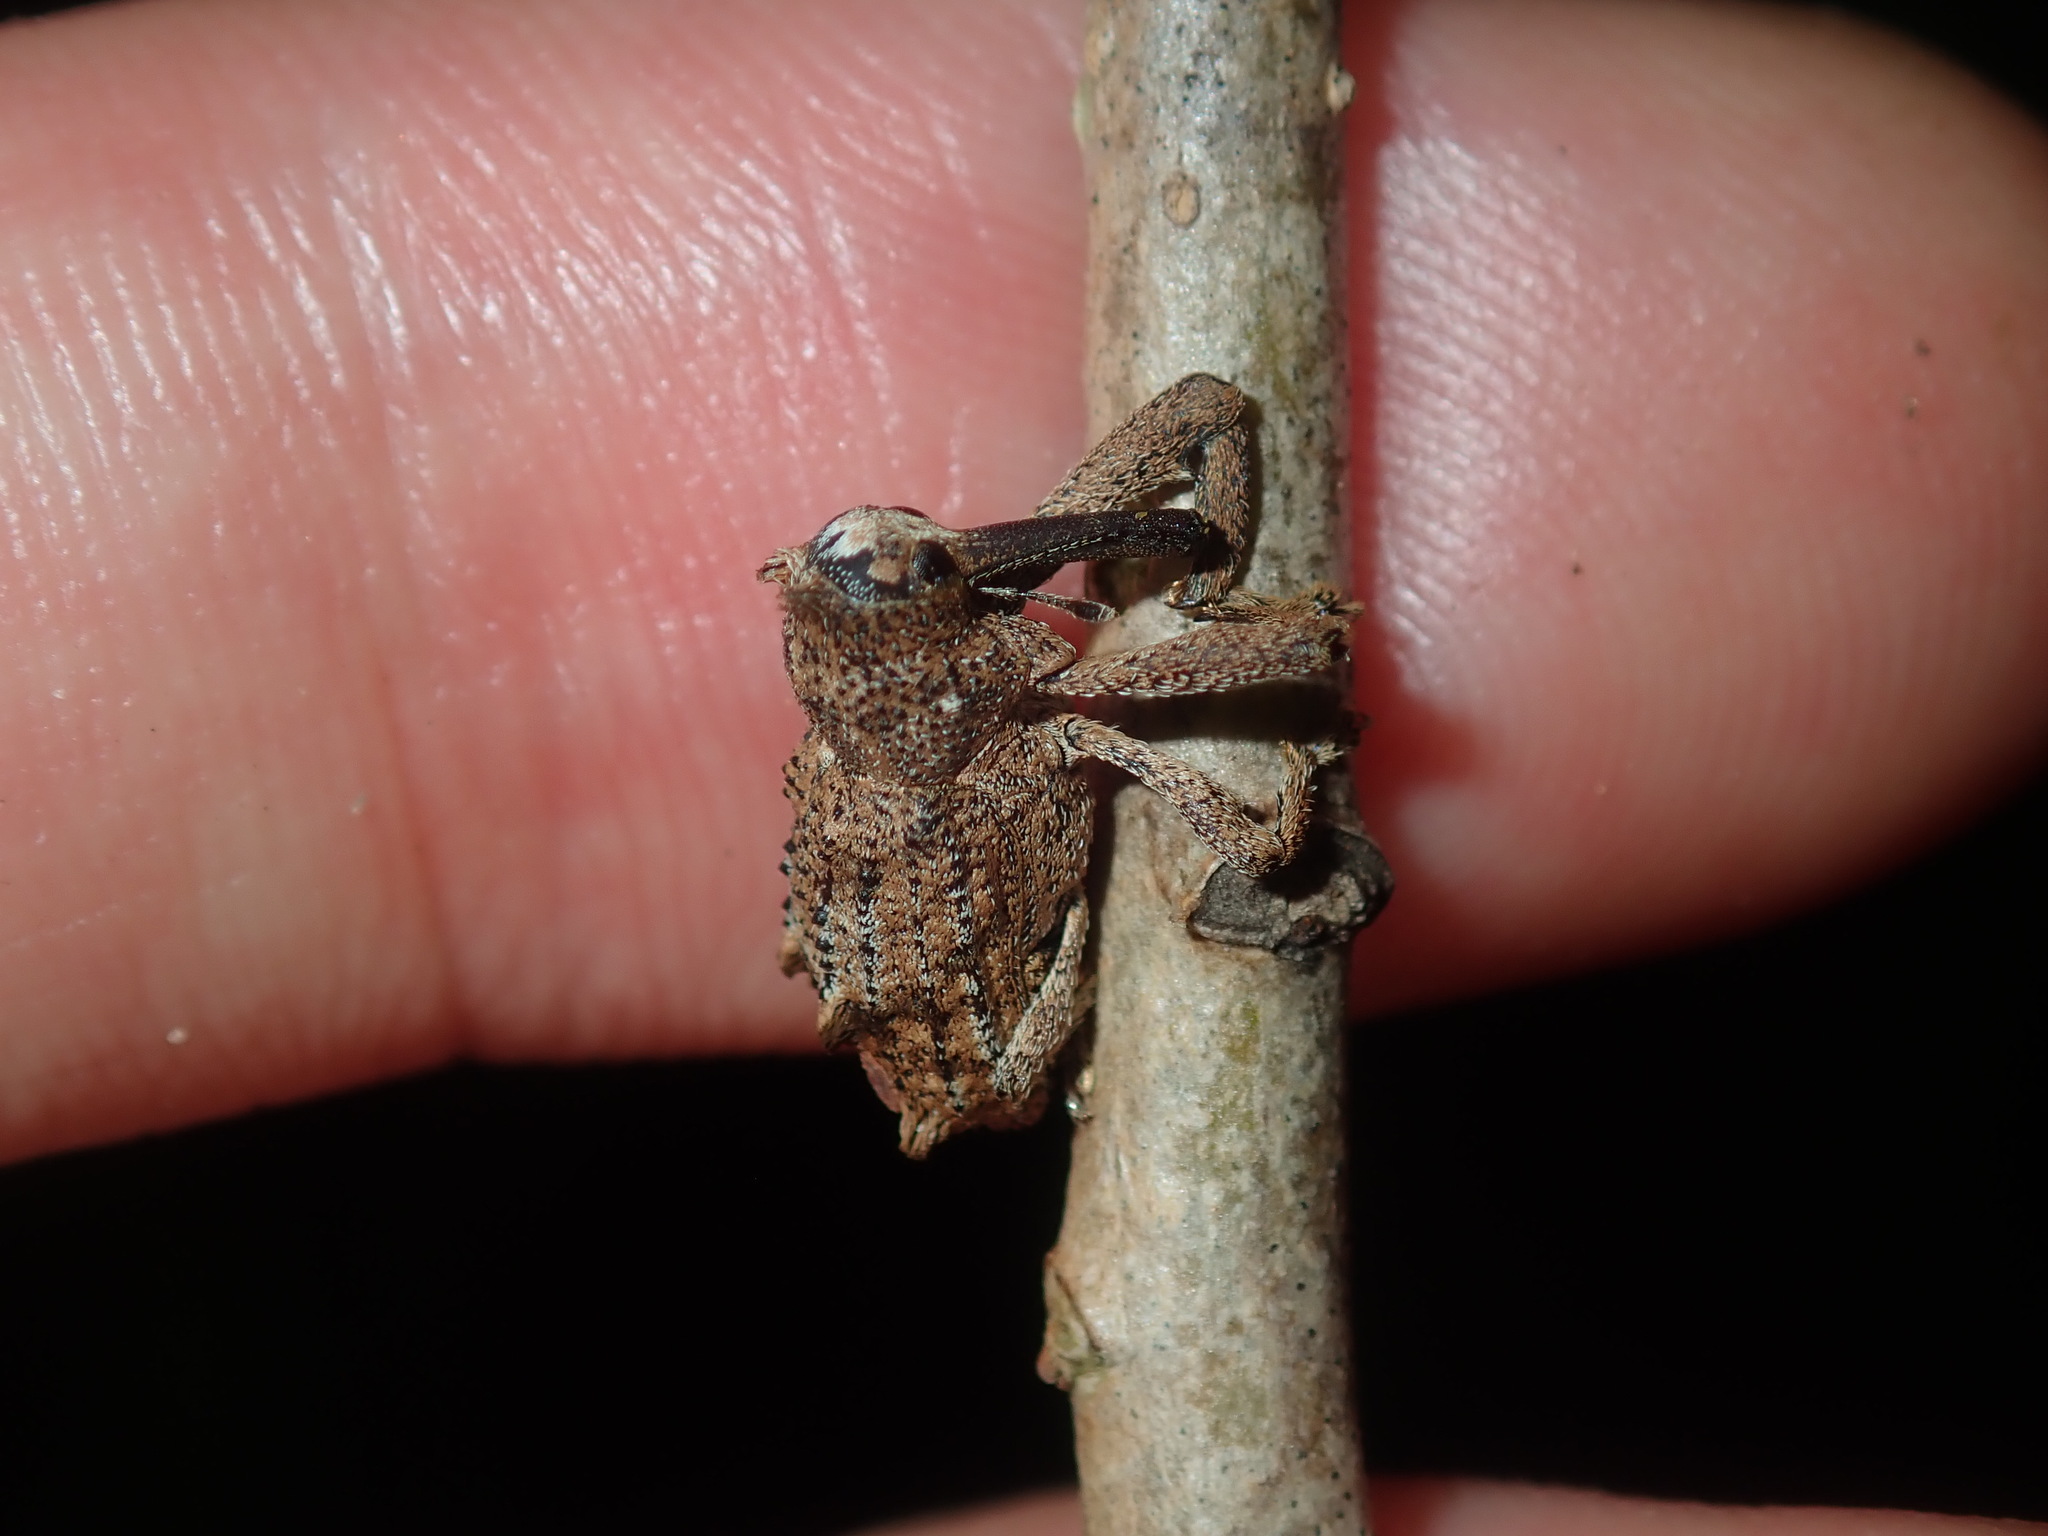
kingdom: Animalia
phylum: Arthropoda
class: Insecta
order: Coleoptera
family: Curculionidae
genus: Orthorhinus
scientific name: Orthorhinus cylindrirostris
